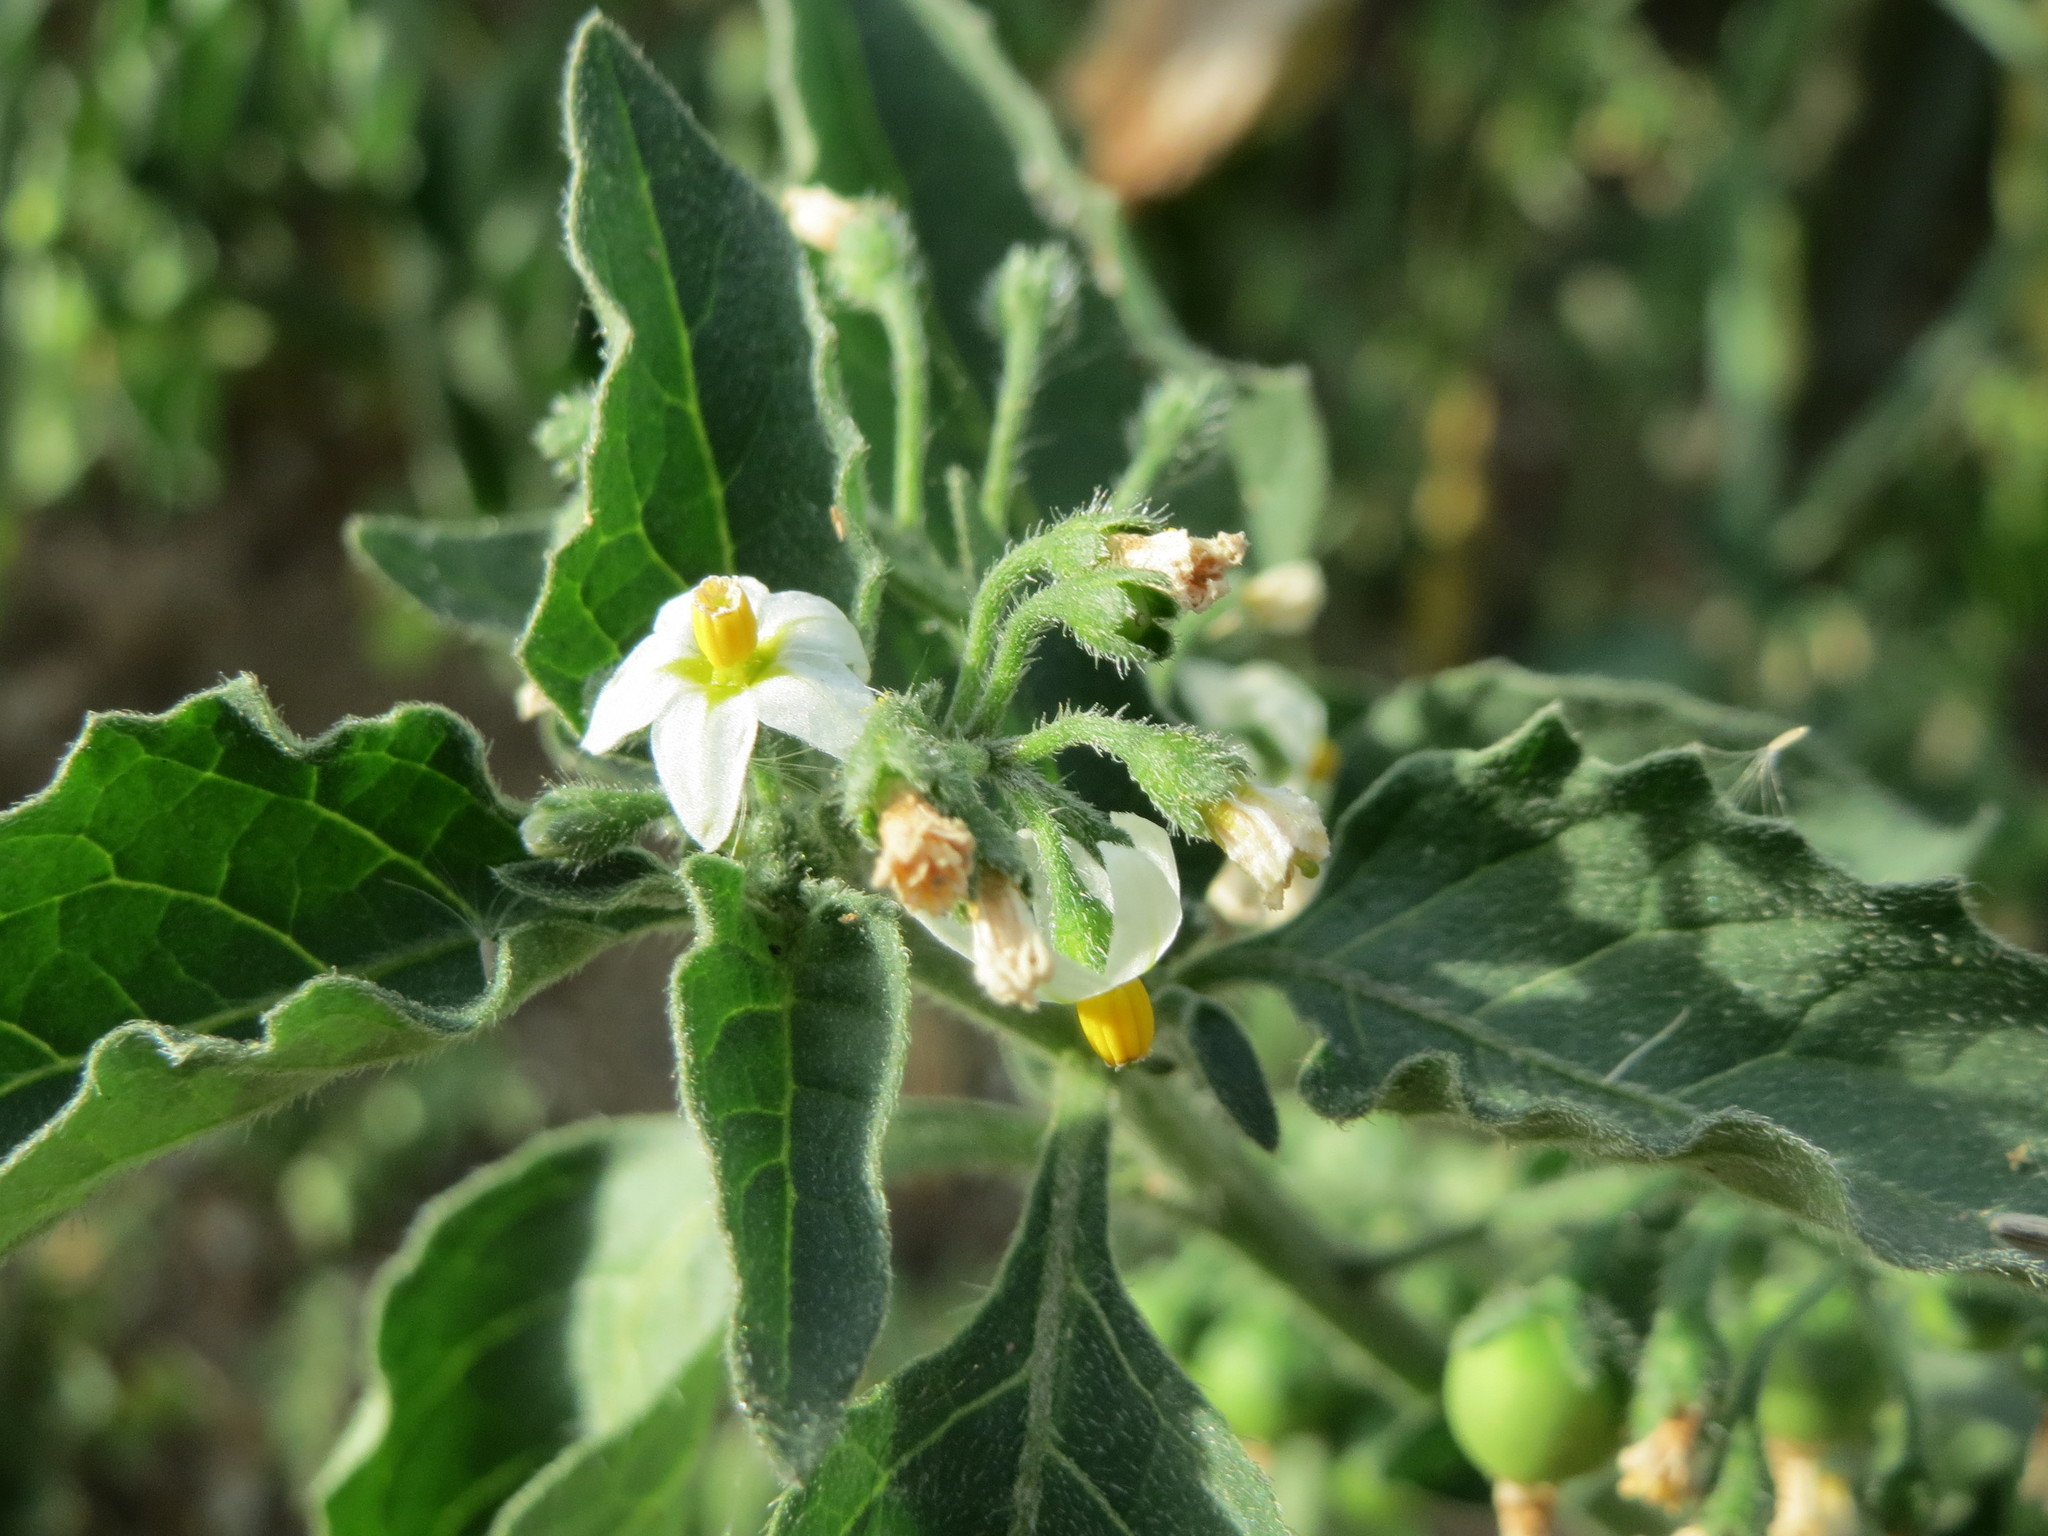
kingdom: Plantae
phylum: Tracheophyta
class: Magnoliopsida
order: Solanales
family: Solanaceae
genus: Solanum
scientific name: Solanum nigrum
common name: Black nightshade
